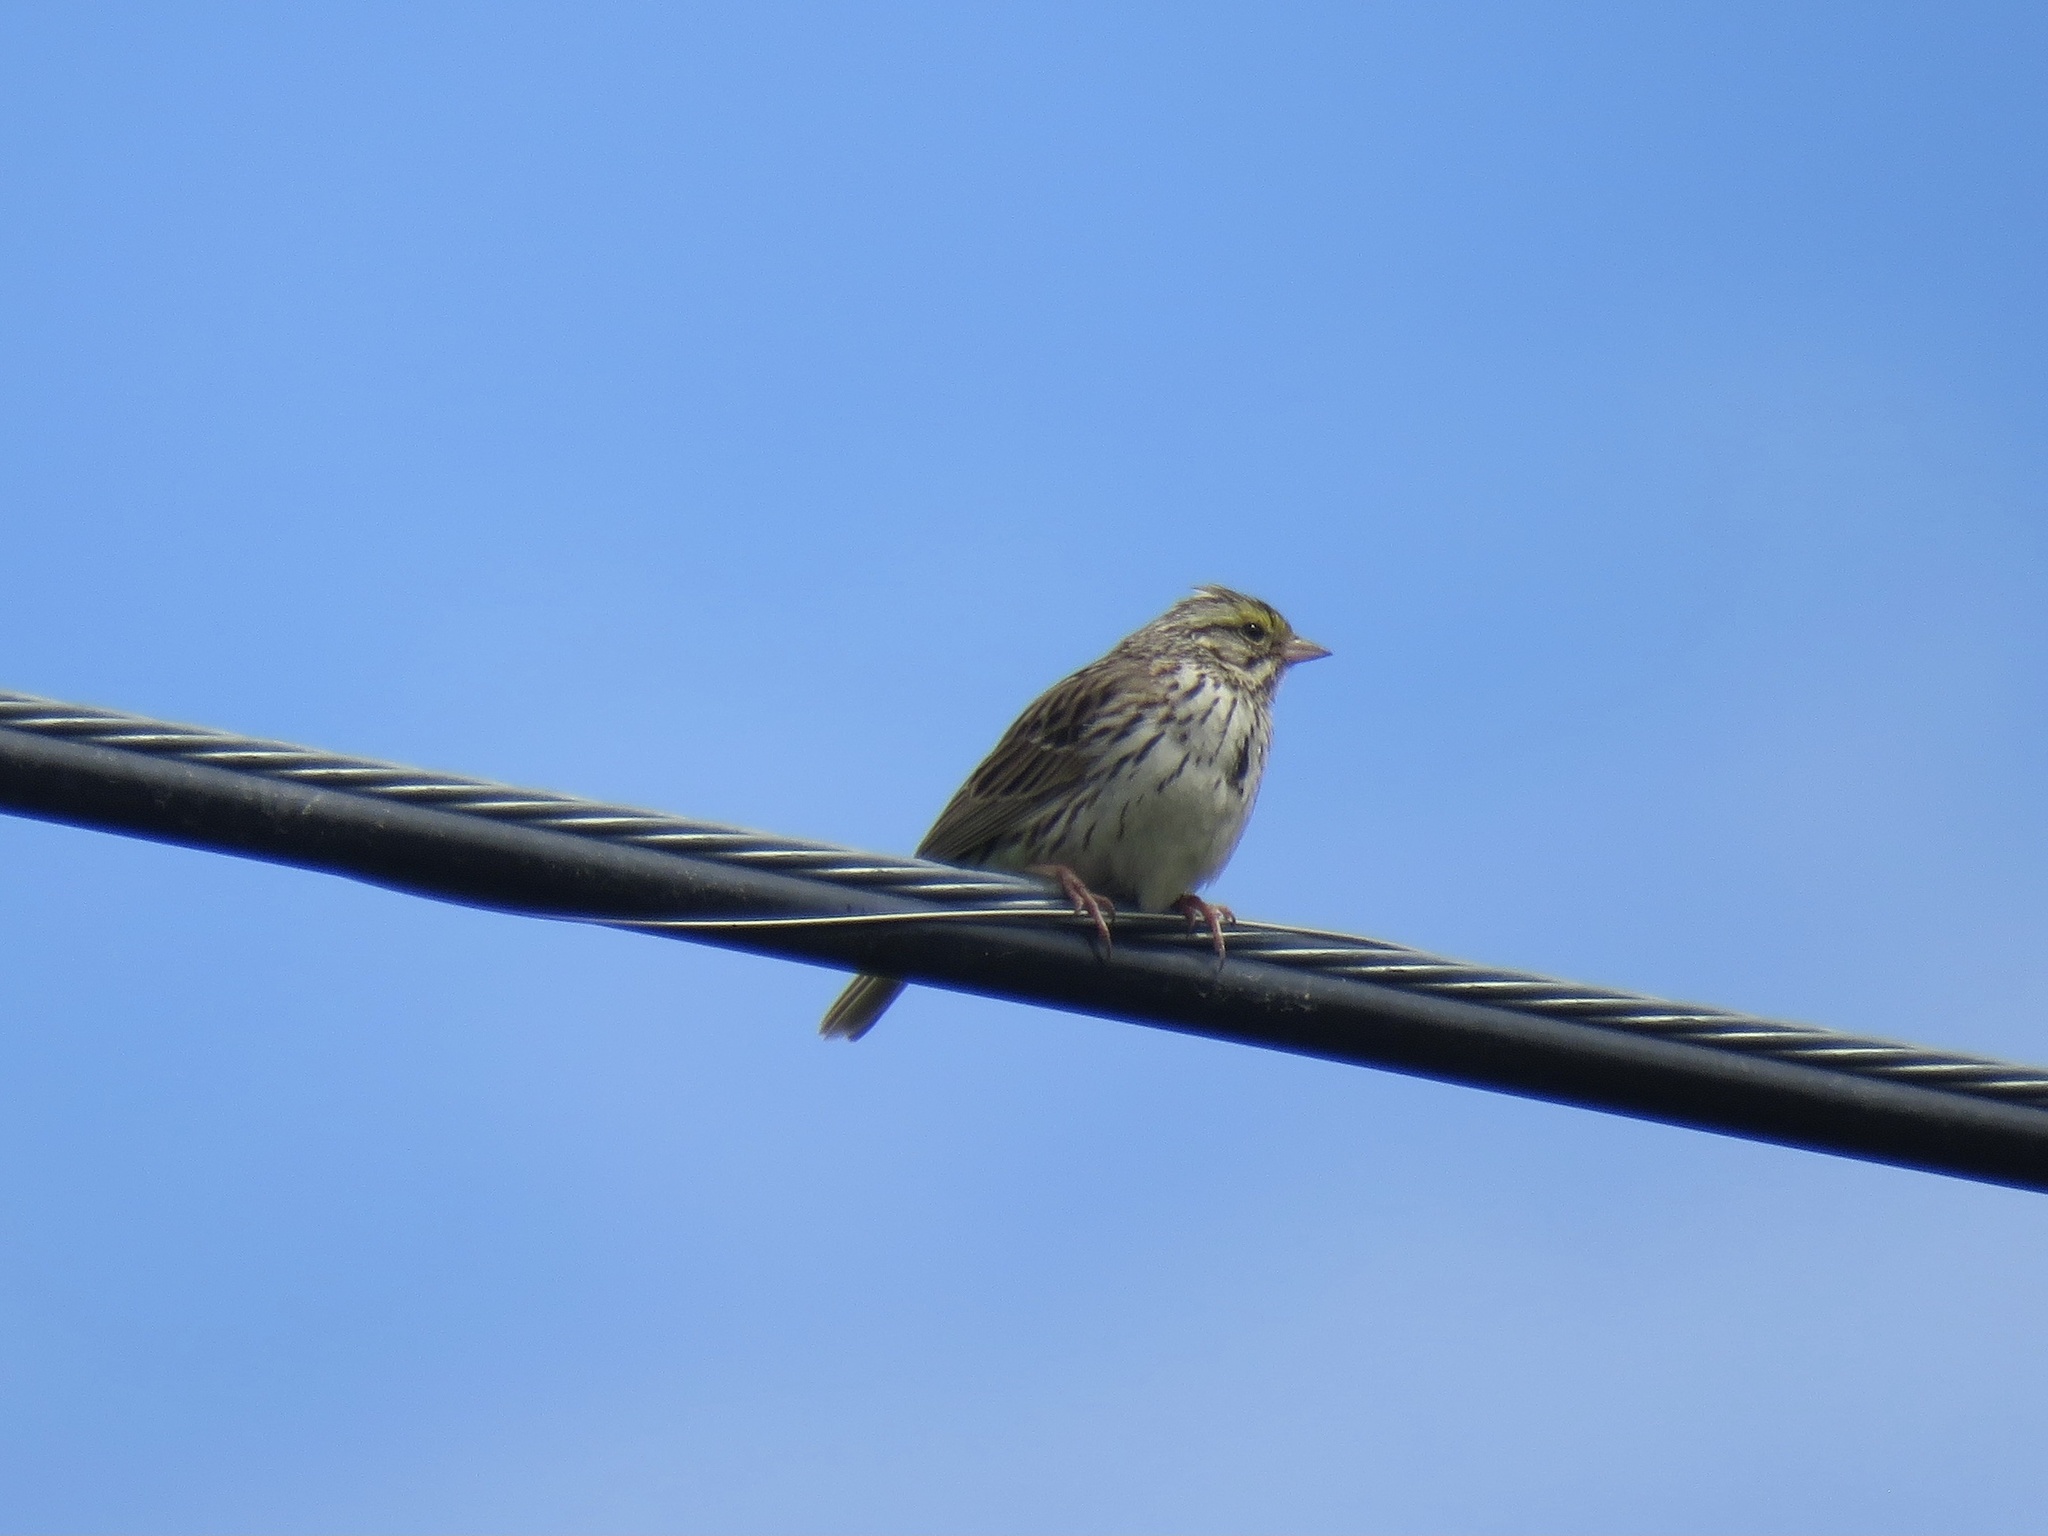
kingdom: Animalia
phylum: Chordata
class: Aves
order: Passeriformes
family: Passerellidae
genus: Passerculus
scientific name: Passerculus sandwichensis
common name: Savannah sparrow
